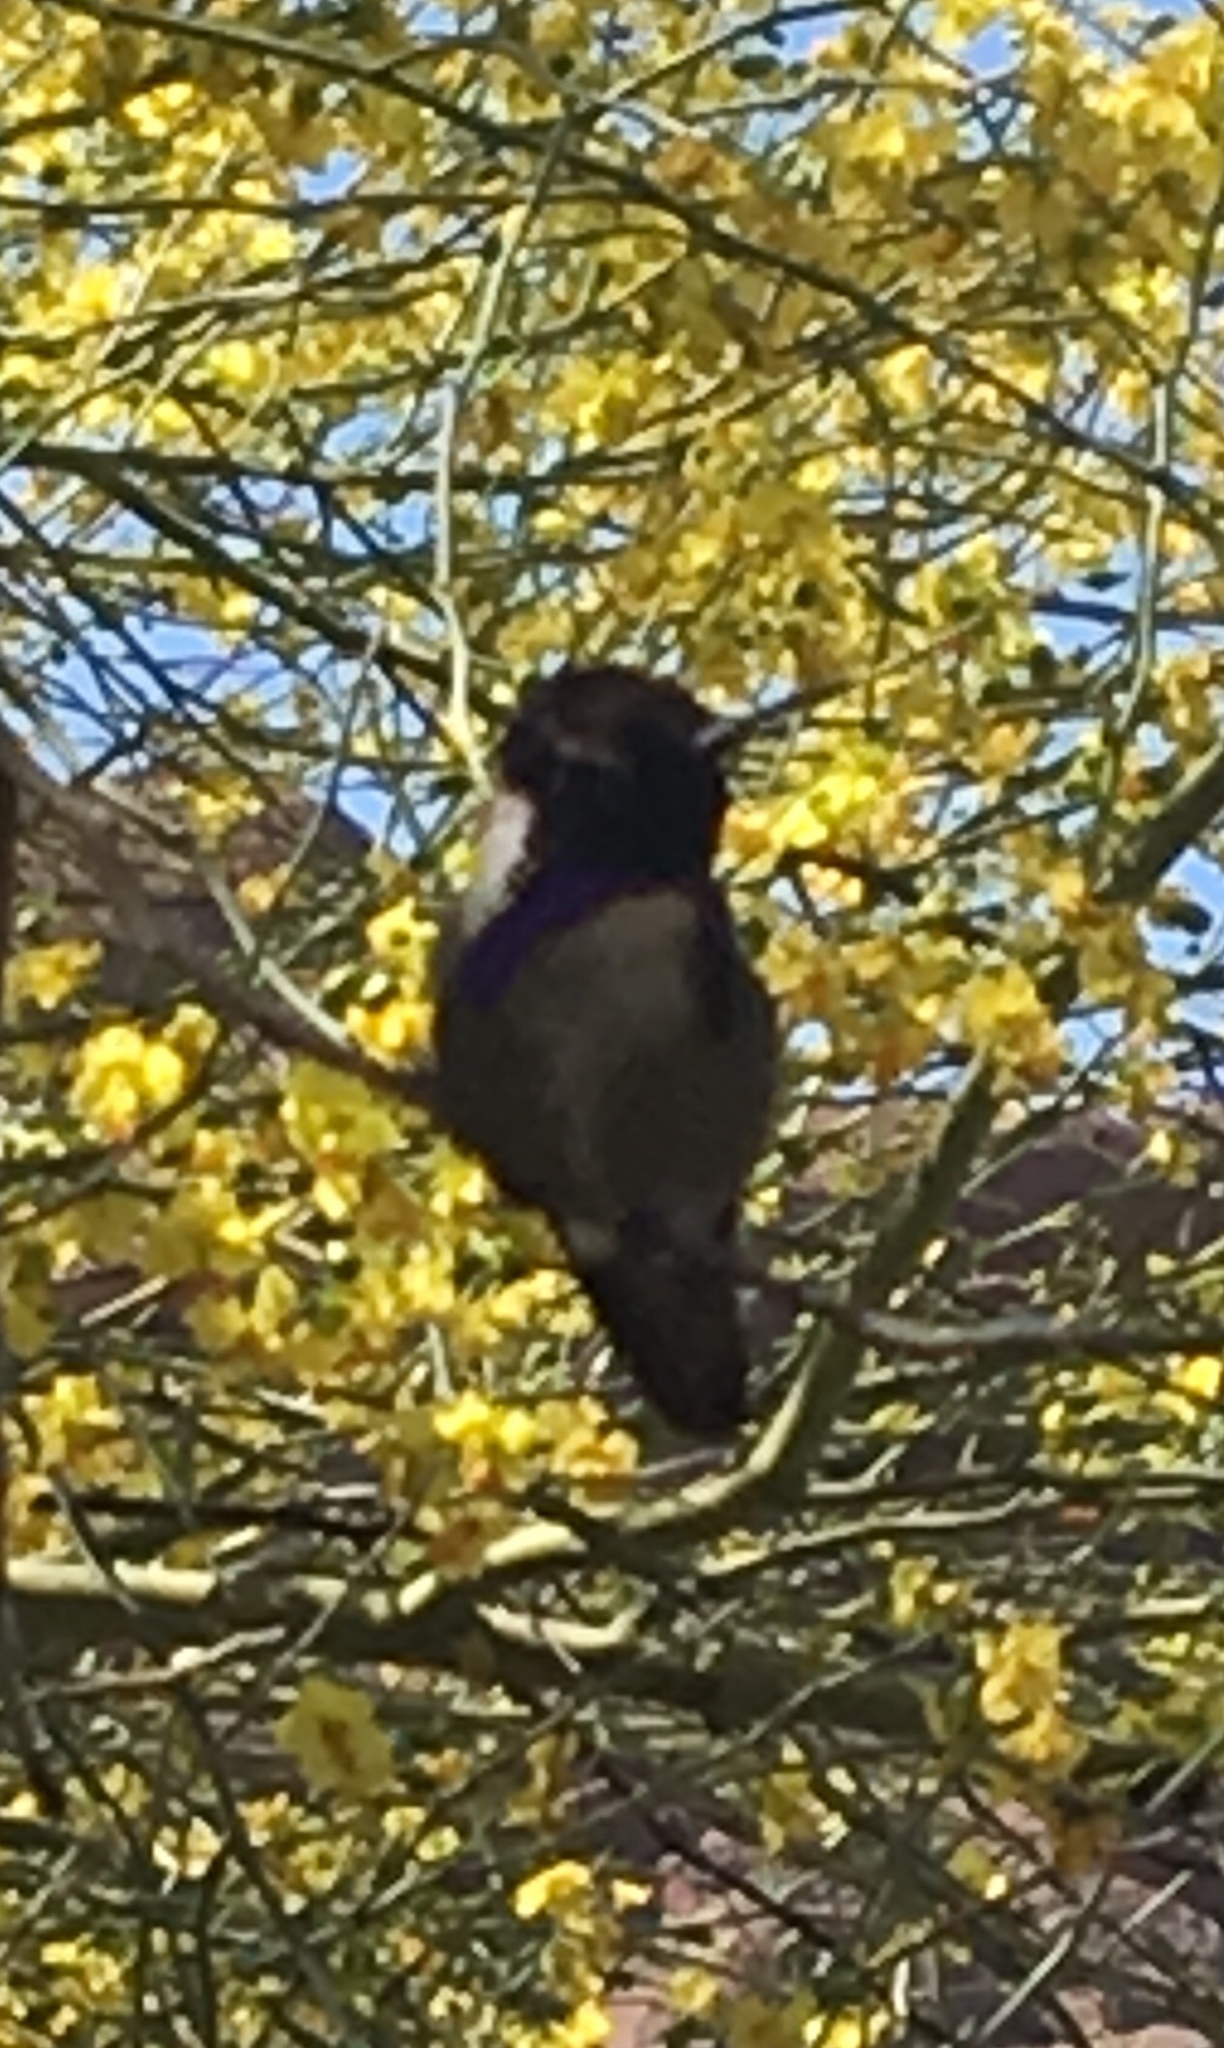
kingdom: Animalia
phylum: Chordata
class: Aves
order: Apodiformes
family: Trochilidae
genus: Calypte
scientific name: Calypte costae
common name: Costa's hummingbird
